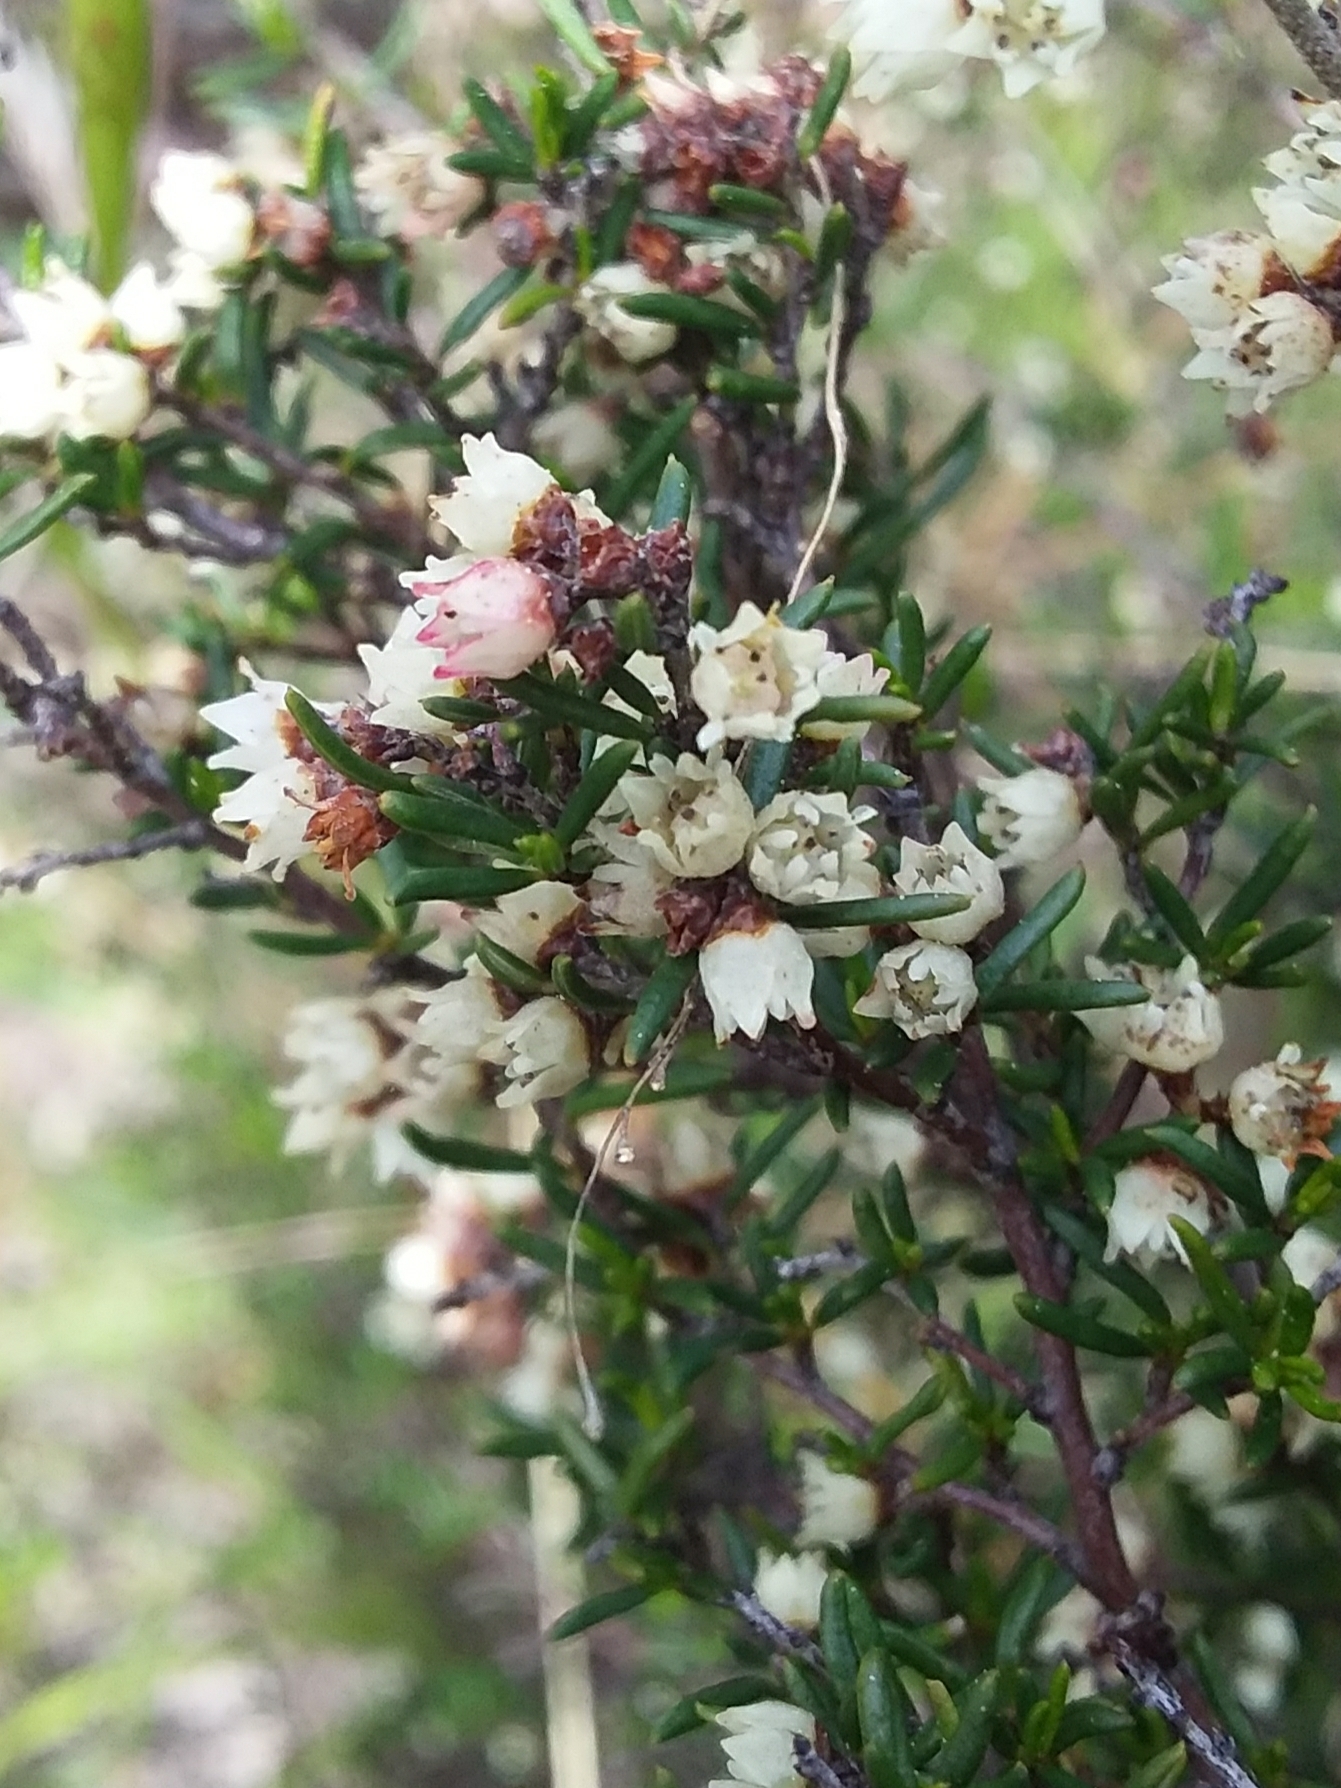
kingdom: Plantae
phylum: Tracheophyta
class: Magnoliopsida
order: Rosales
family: Rhamnaceae
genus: Cryptandra
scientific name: Cryptandra tomentosa
